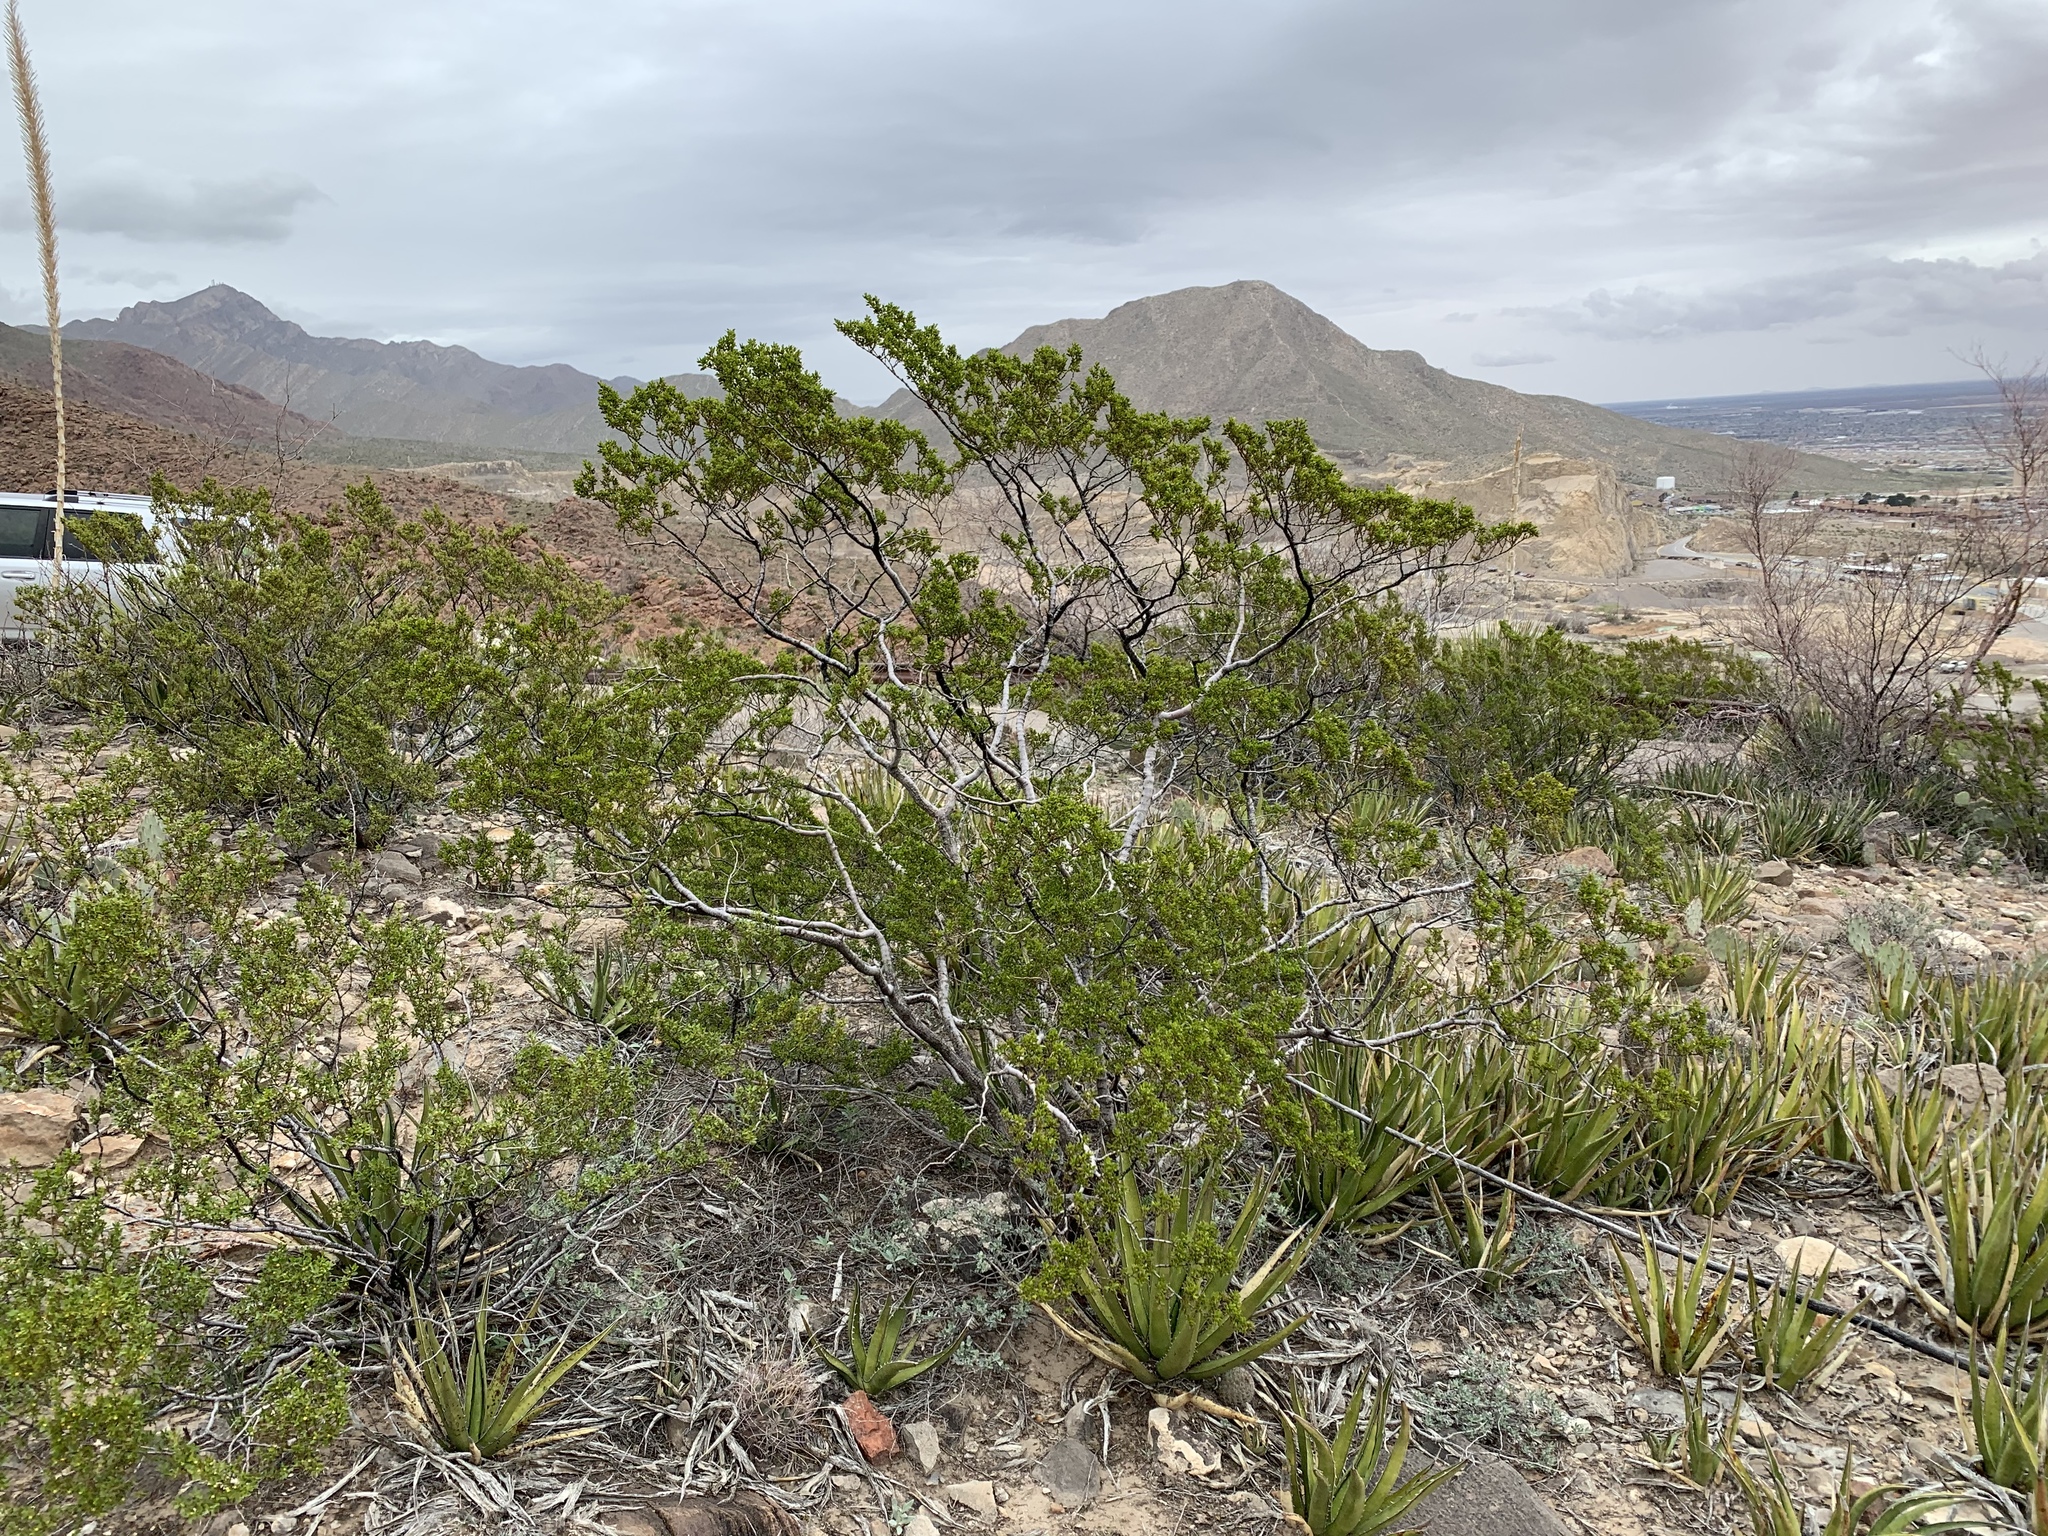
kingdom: Plantae
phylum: Tracheophyta
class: Magnoliopsida
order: Zygophyllales
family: Zygophyllaceae
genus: Larrea
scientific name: Larrea tridentata
